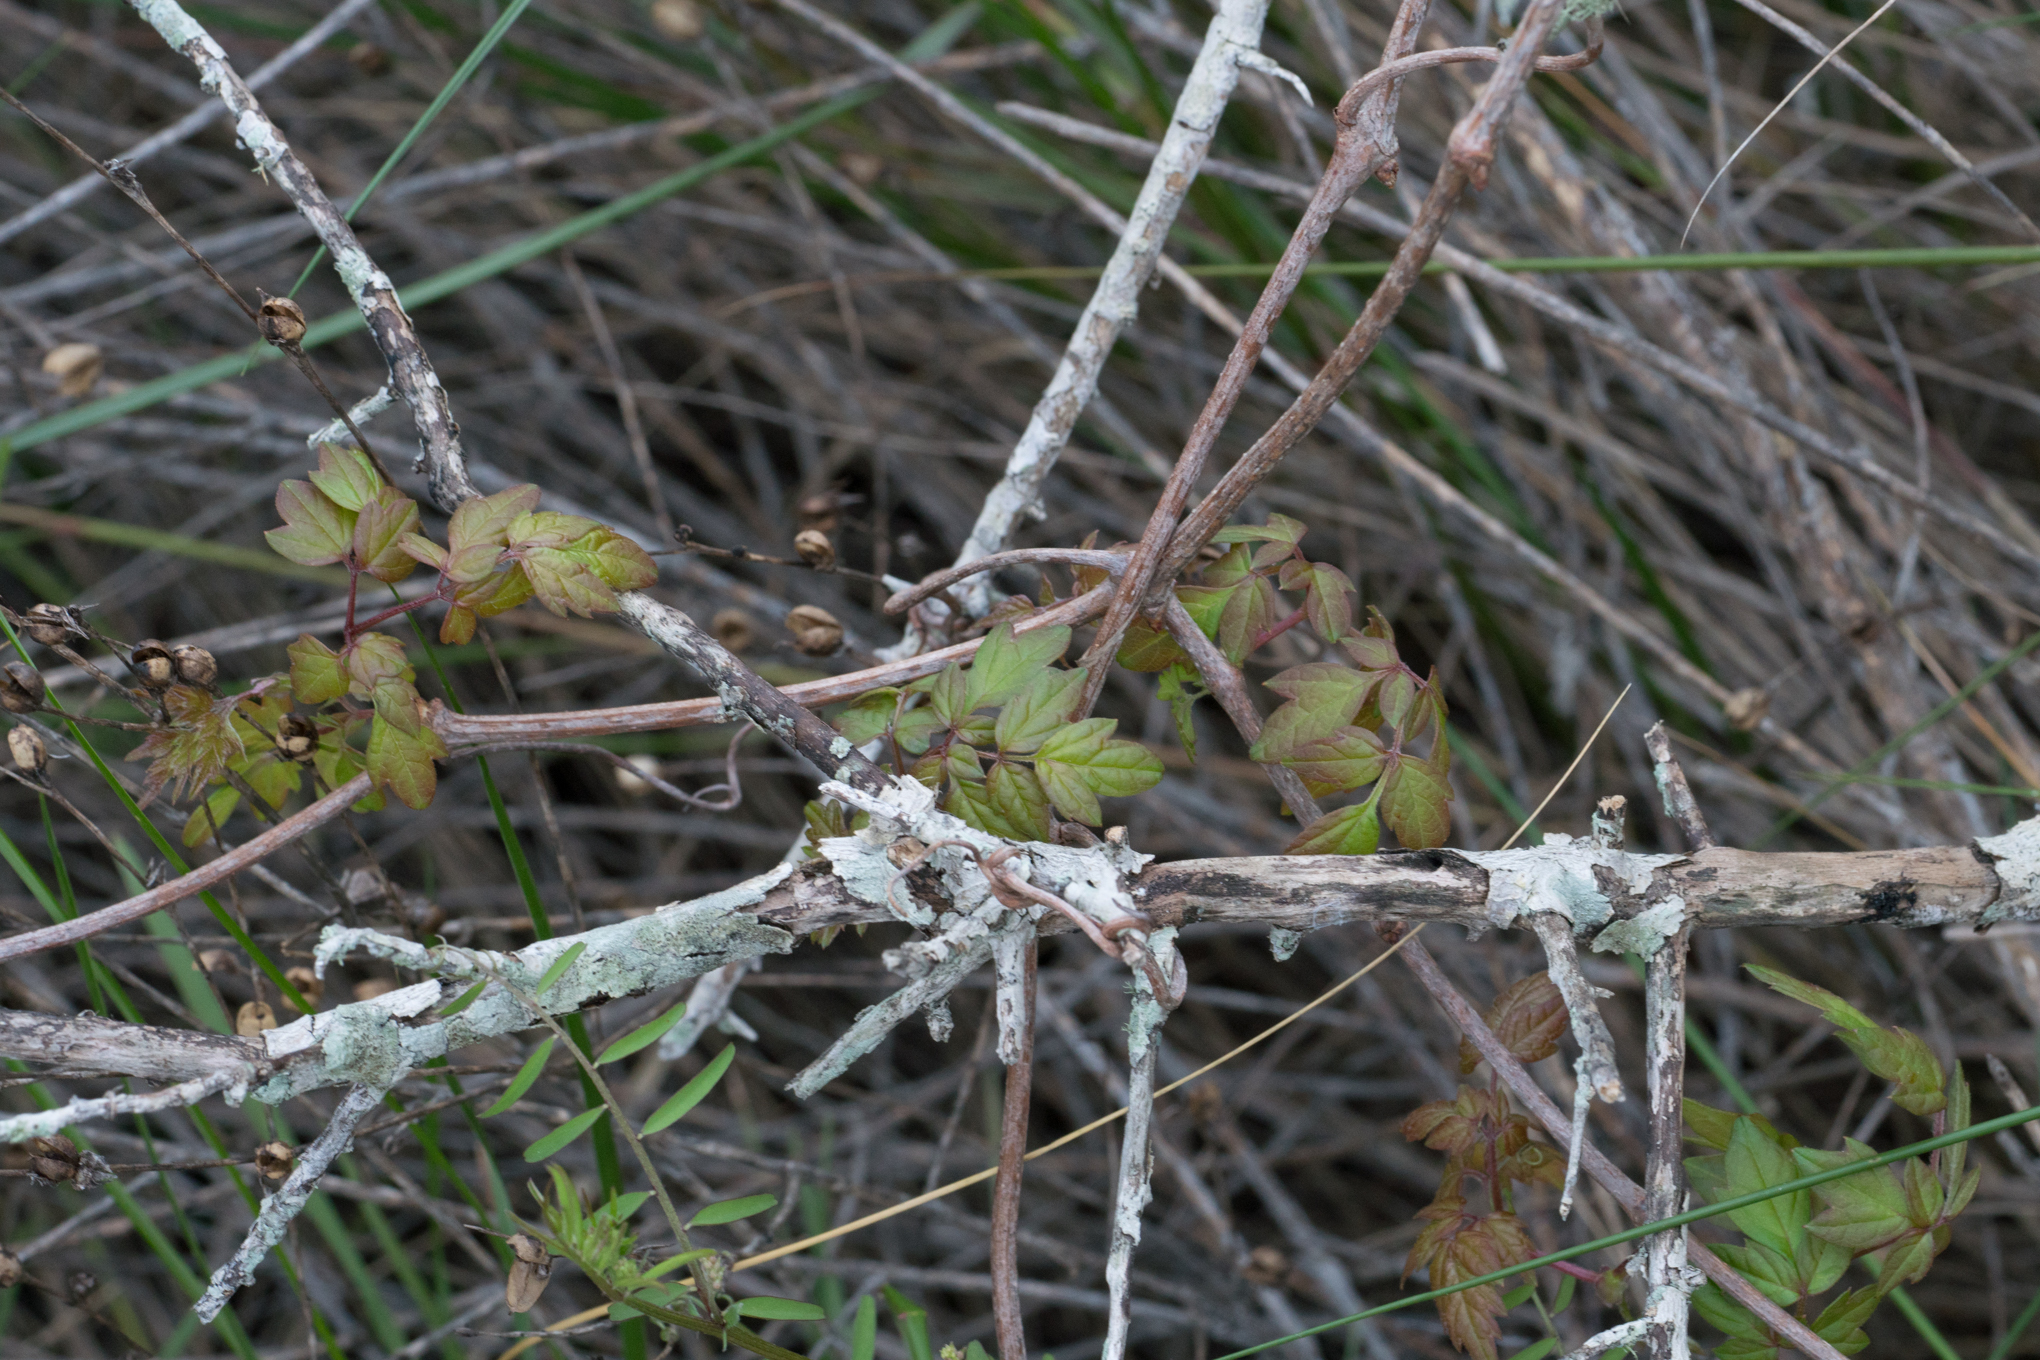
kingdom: Plantae
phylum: Tracheophyta
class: Magnoliopsida
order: Vitales
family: Vitaceae
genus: Nekemias
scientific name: Nekemias arborea
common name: Peppervine
